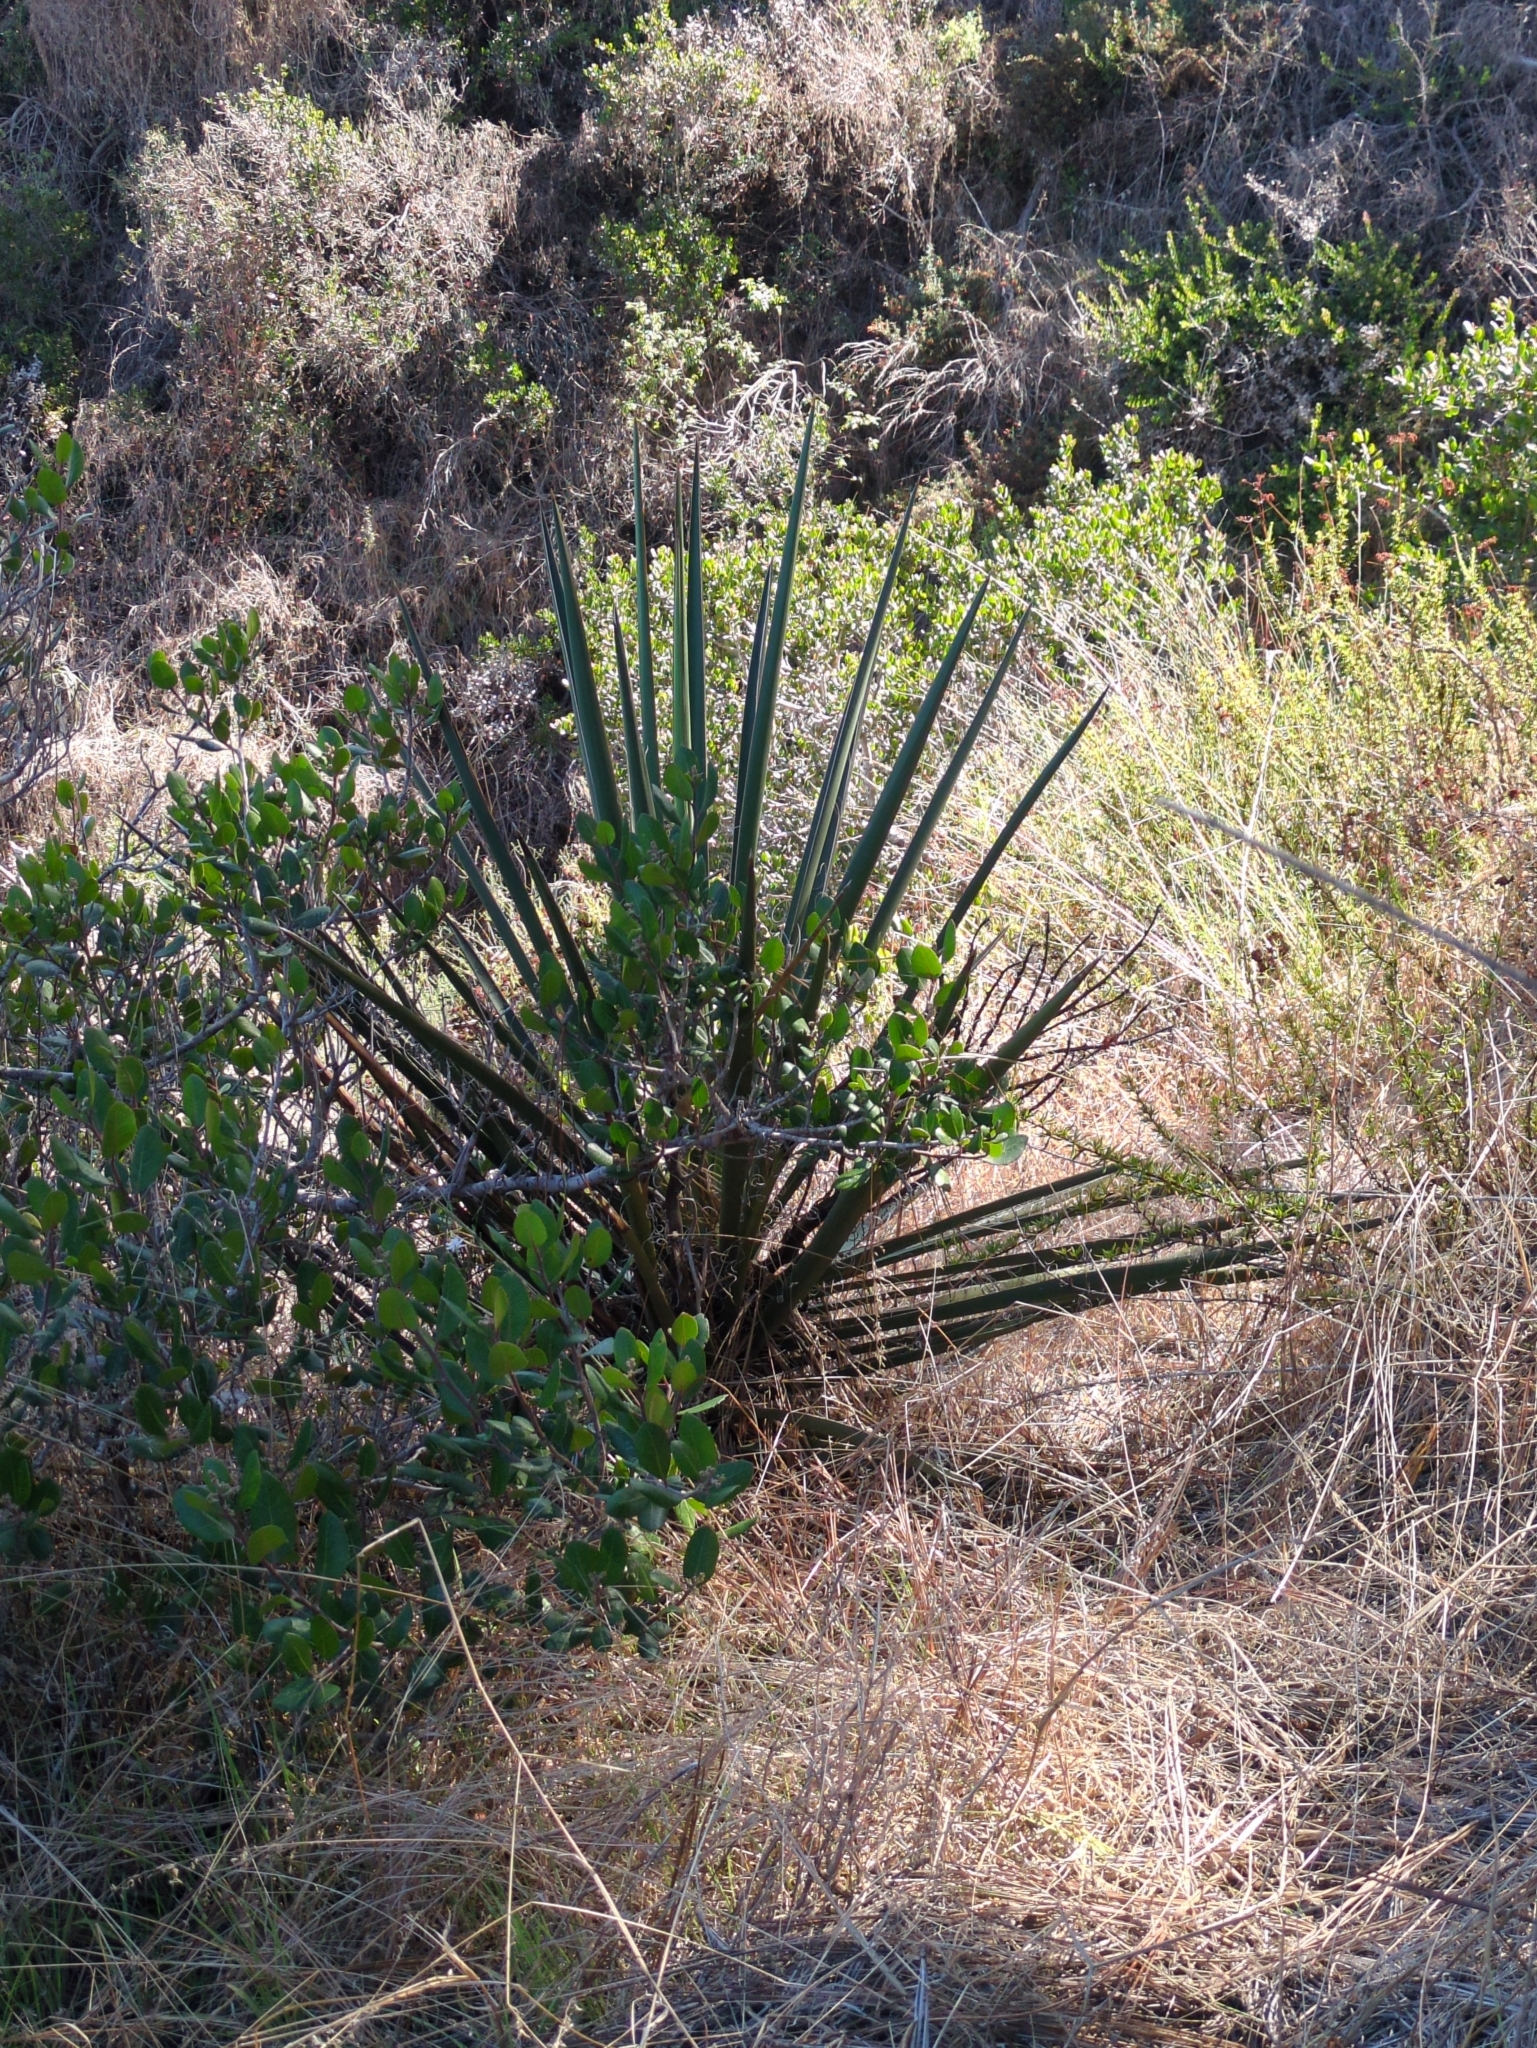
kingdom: Plantae
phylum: Tracheophyta
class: Liliopsida
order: Asparagales
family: Asparagaceae
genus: Yucca
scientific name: Yucca schidigera
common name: Mojave yucca
